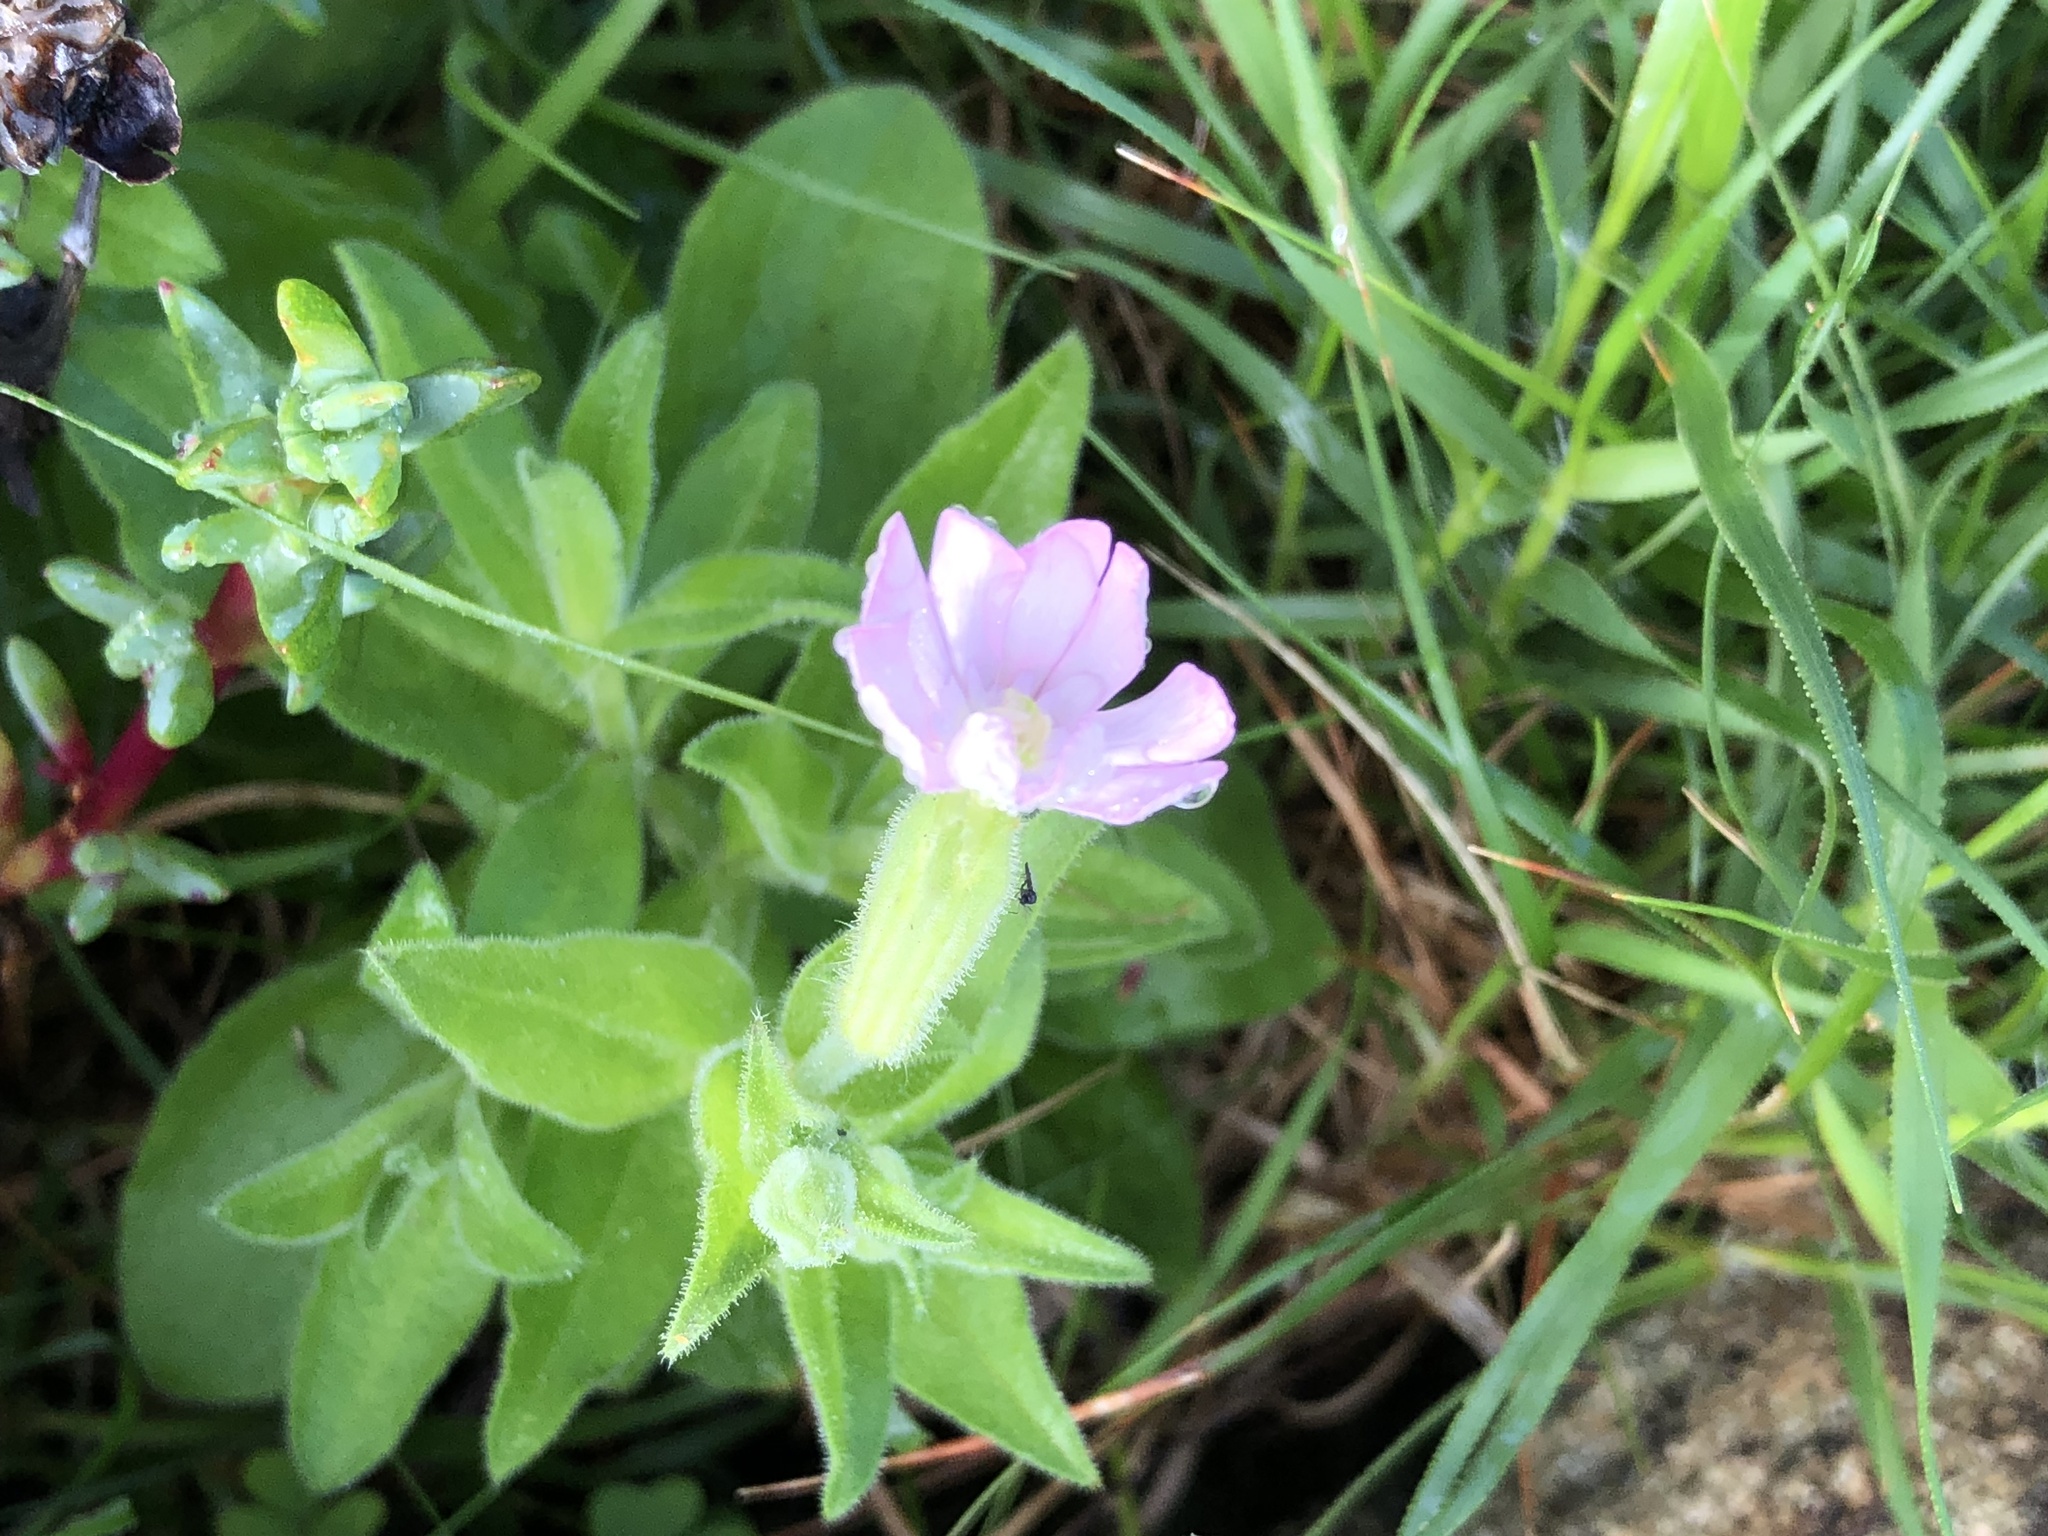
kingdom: Plantae
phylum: Tracheophyta
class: Magnoliopsida
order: Caryophyllales
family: Caryophyllaceae
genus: Silene
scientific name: Silene undulata
